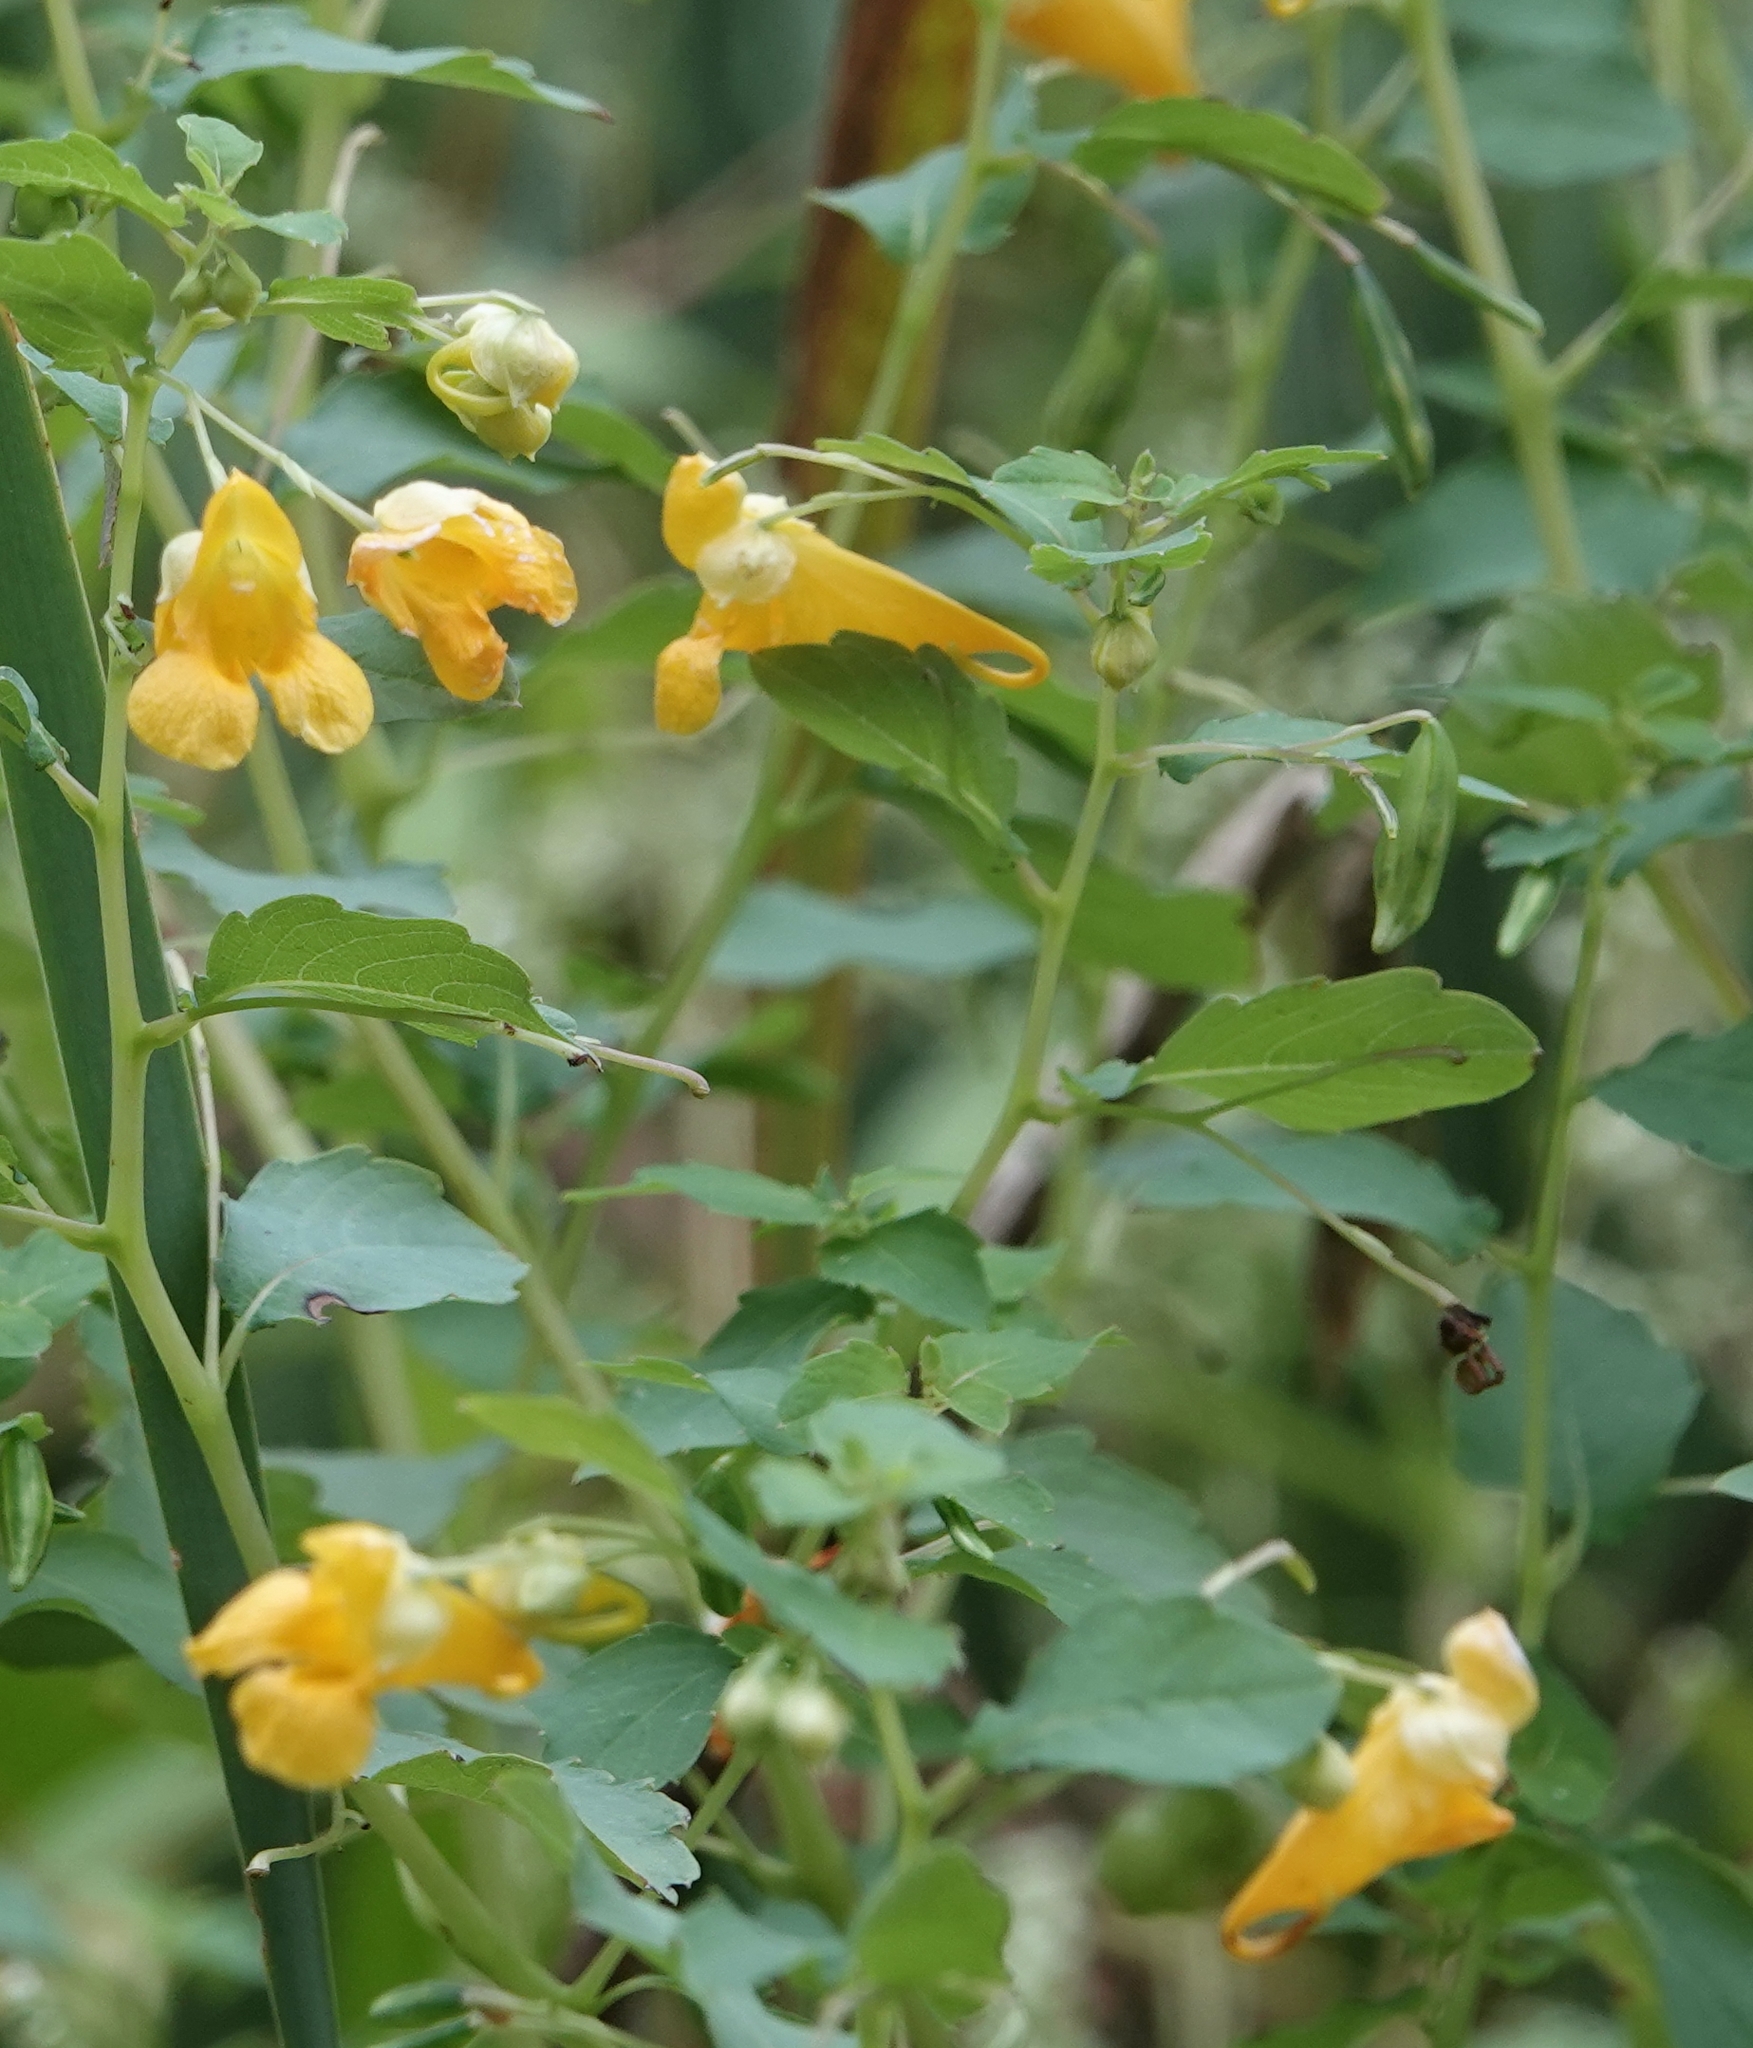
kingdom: Plantae
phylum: Tracheophyta
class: Magnoliopsida
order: Ericales
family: Balsaminaceae
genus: Impatiens
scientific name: Impatiens capensis
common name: Orange balsam
